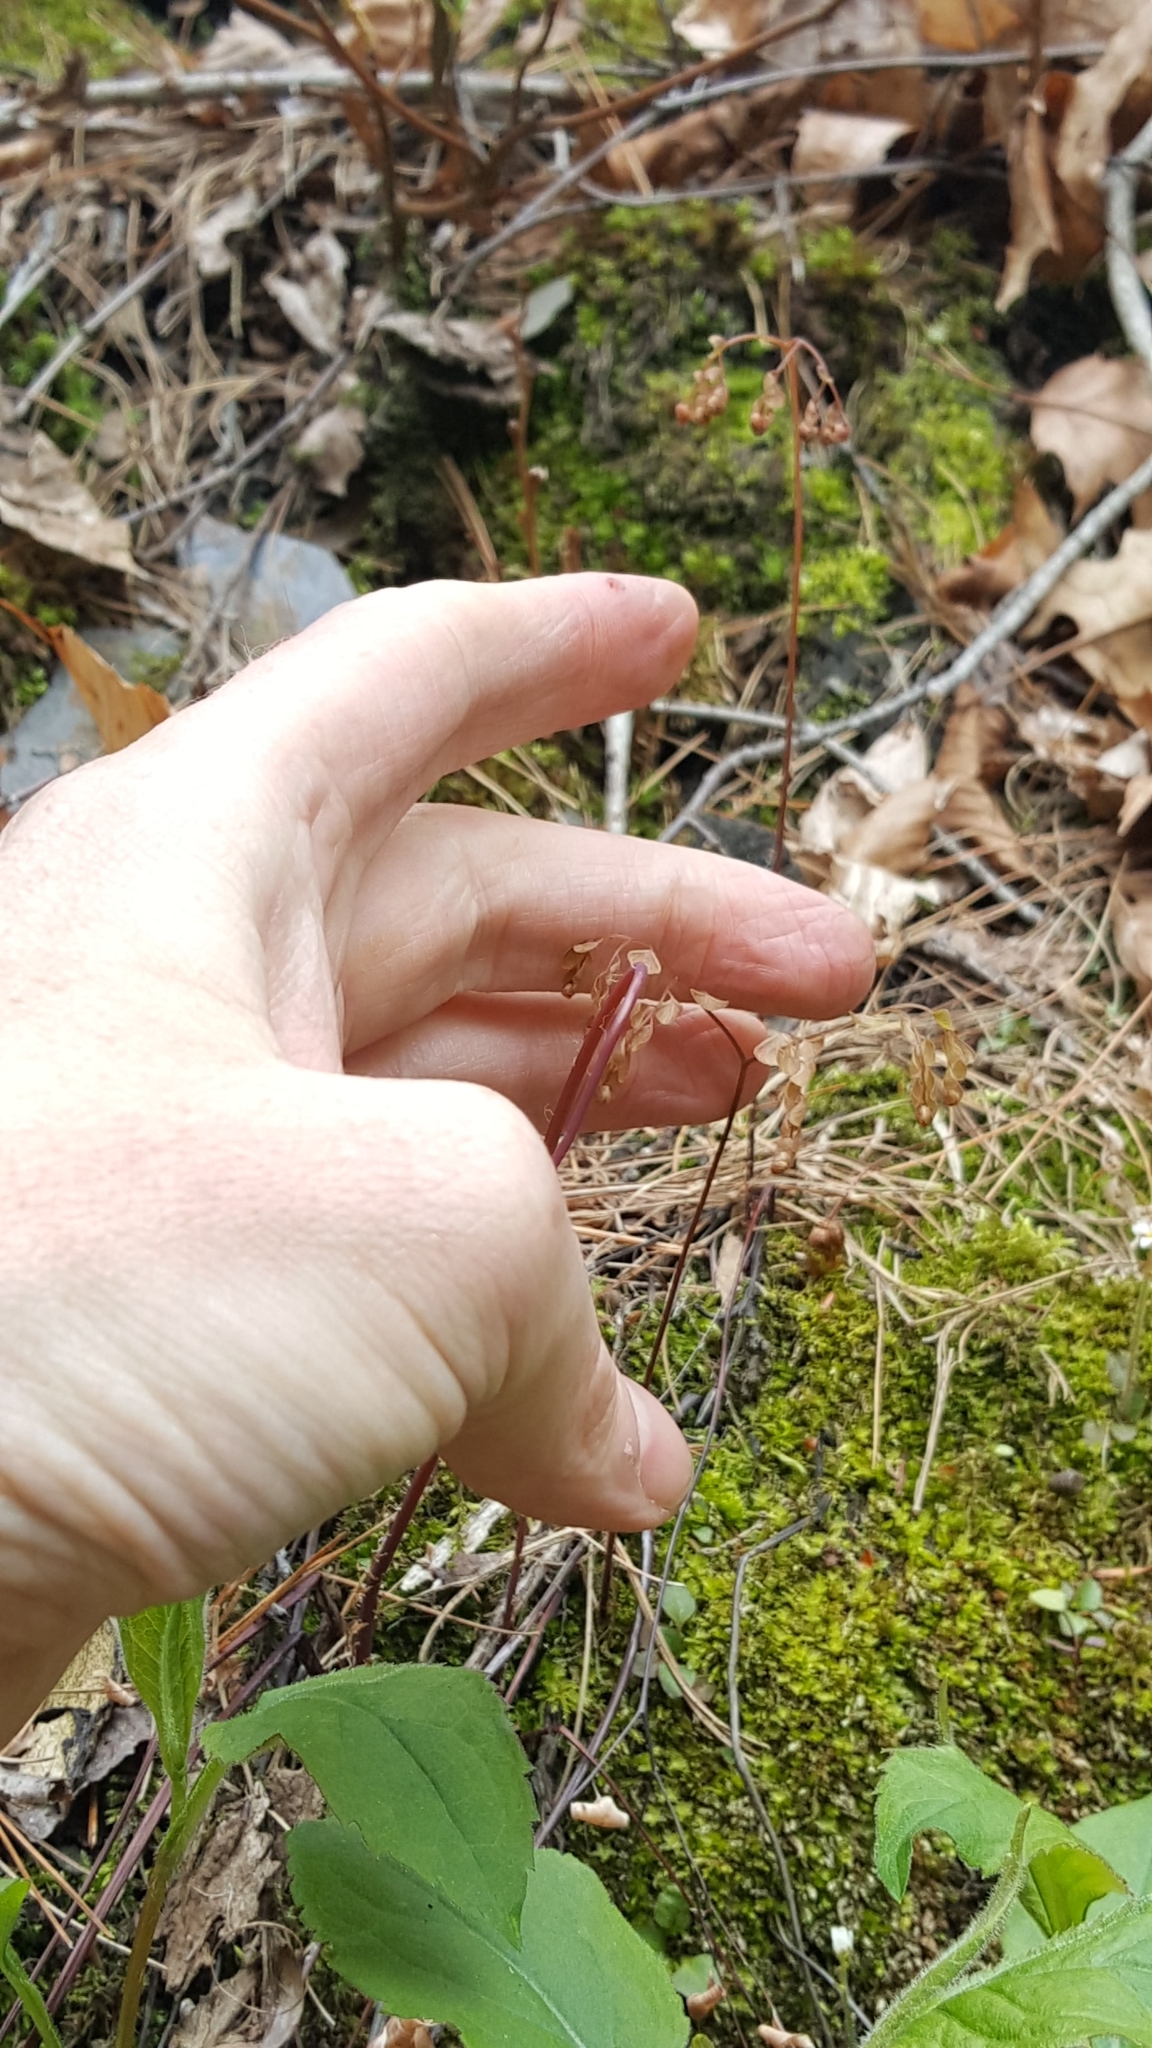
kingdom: Plantae
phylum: Tracheophyta
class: Polypodiopsida
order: Polypodiales
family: Pteridaceae
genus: Adiantum
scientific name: Adiantum pedatum
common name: Five-finger fern
